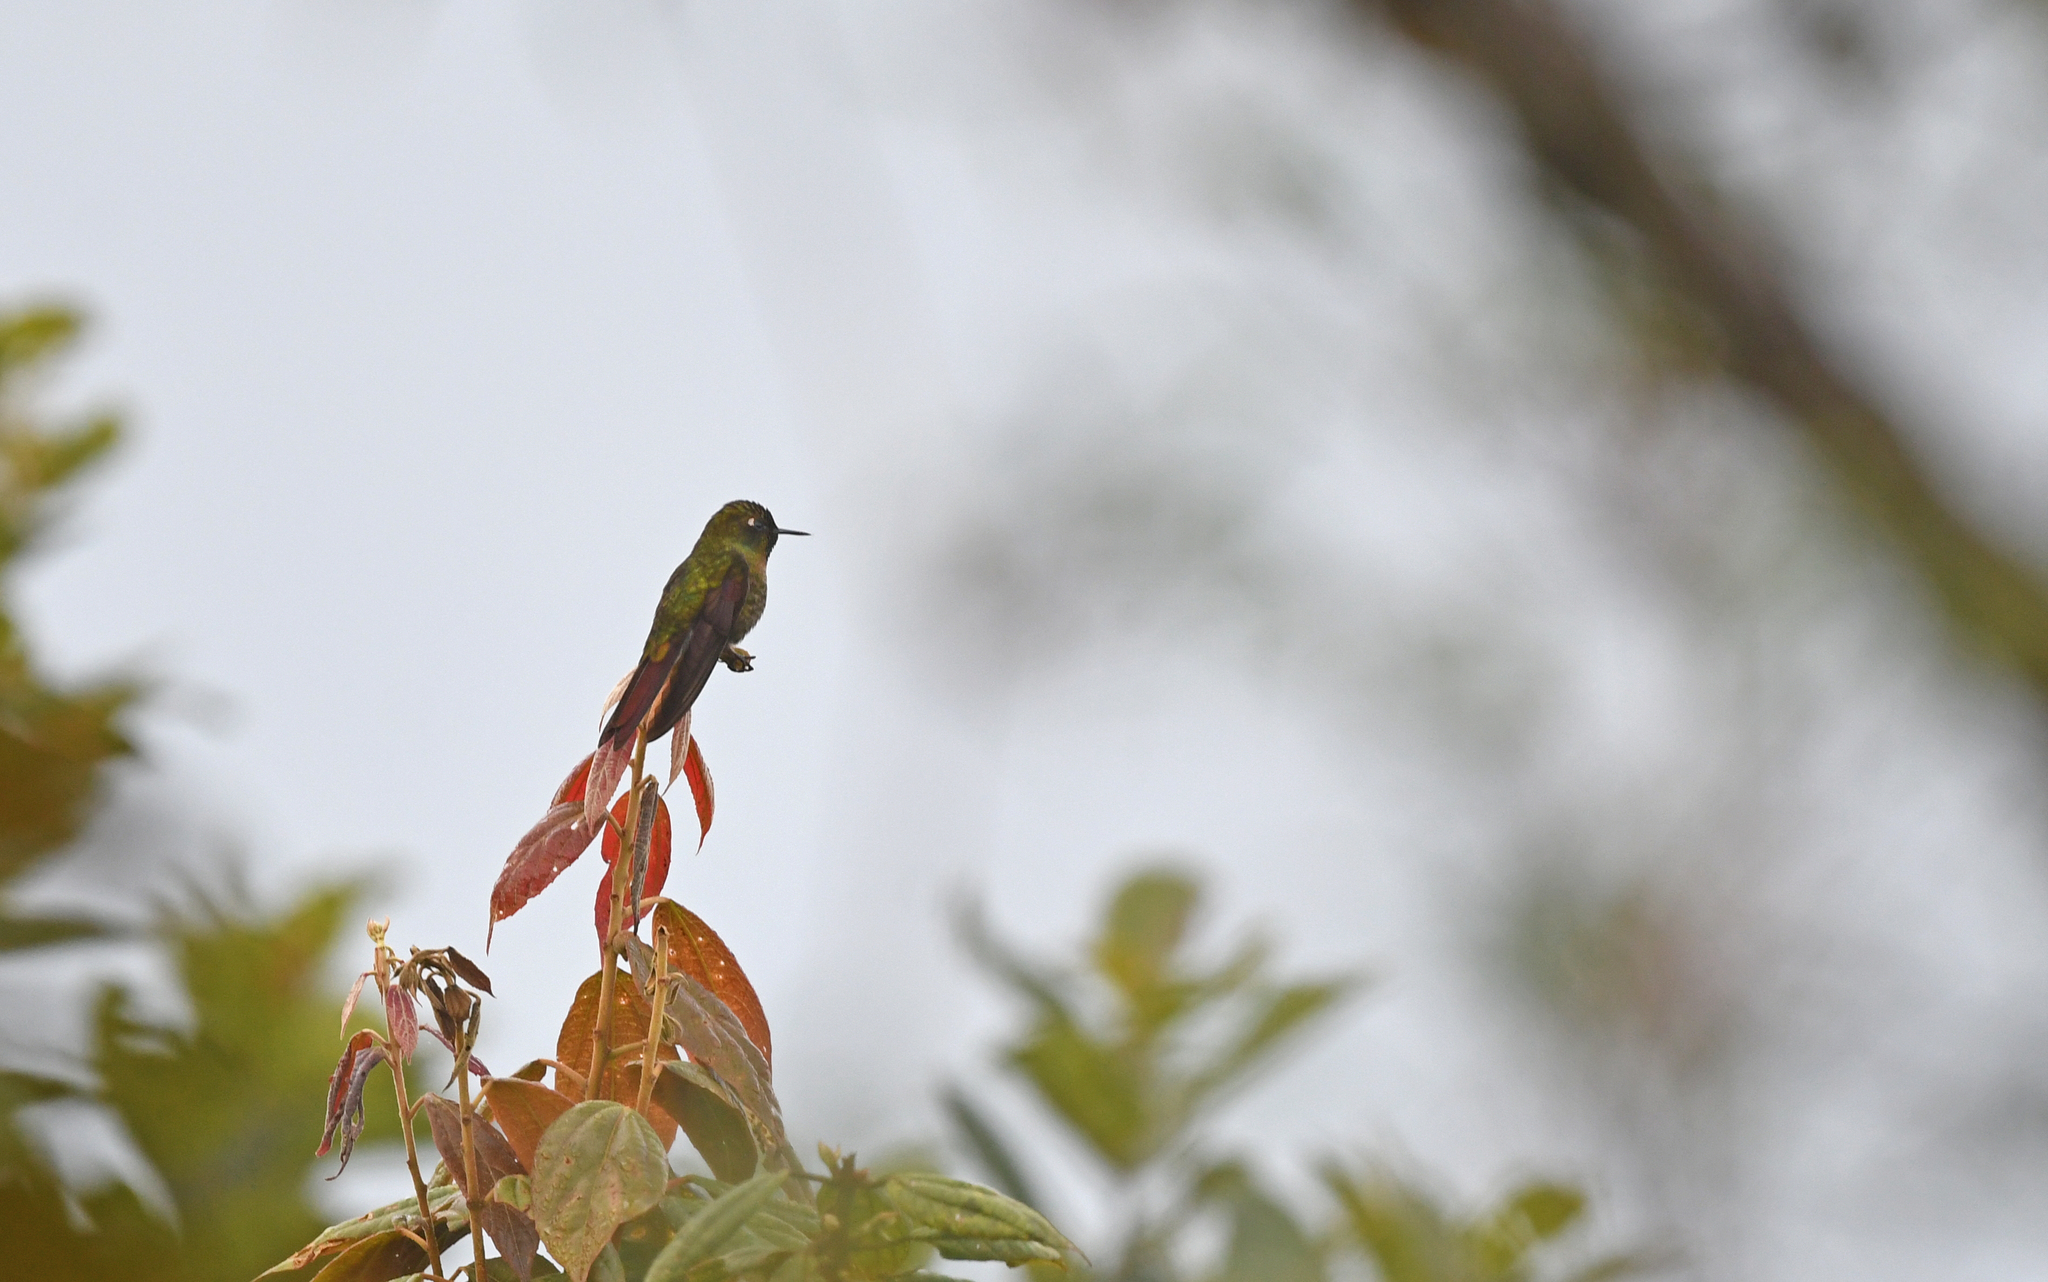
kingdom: Animalia
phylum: Chordata
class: Aves
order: Apodiformes
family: Trochilidae
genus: Metallura
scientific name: Metallura tyrianthina
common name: Tyrian metaltail
